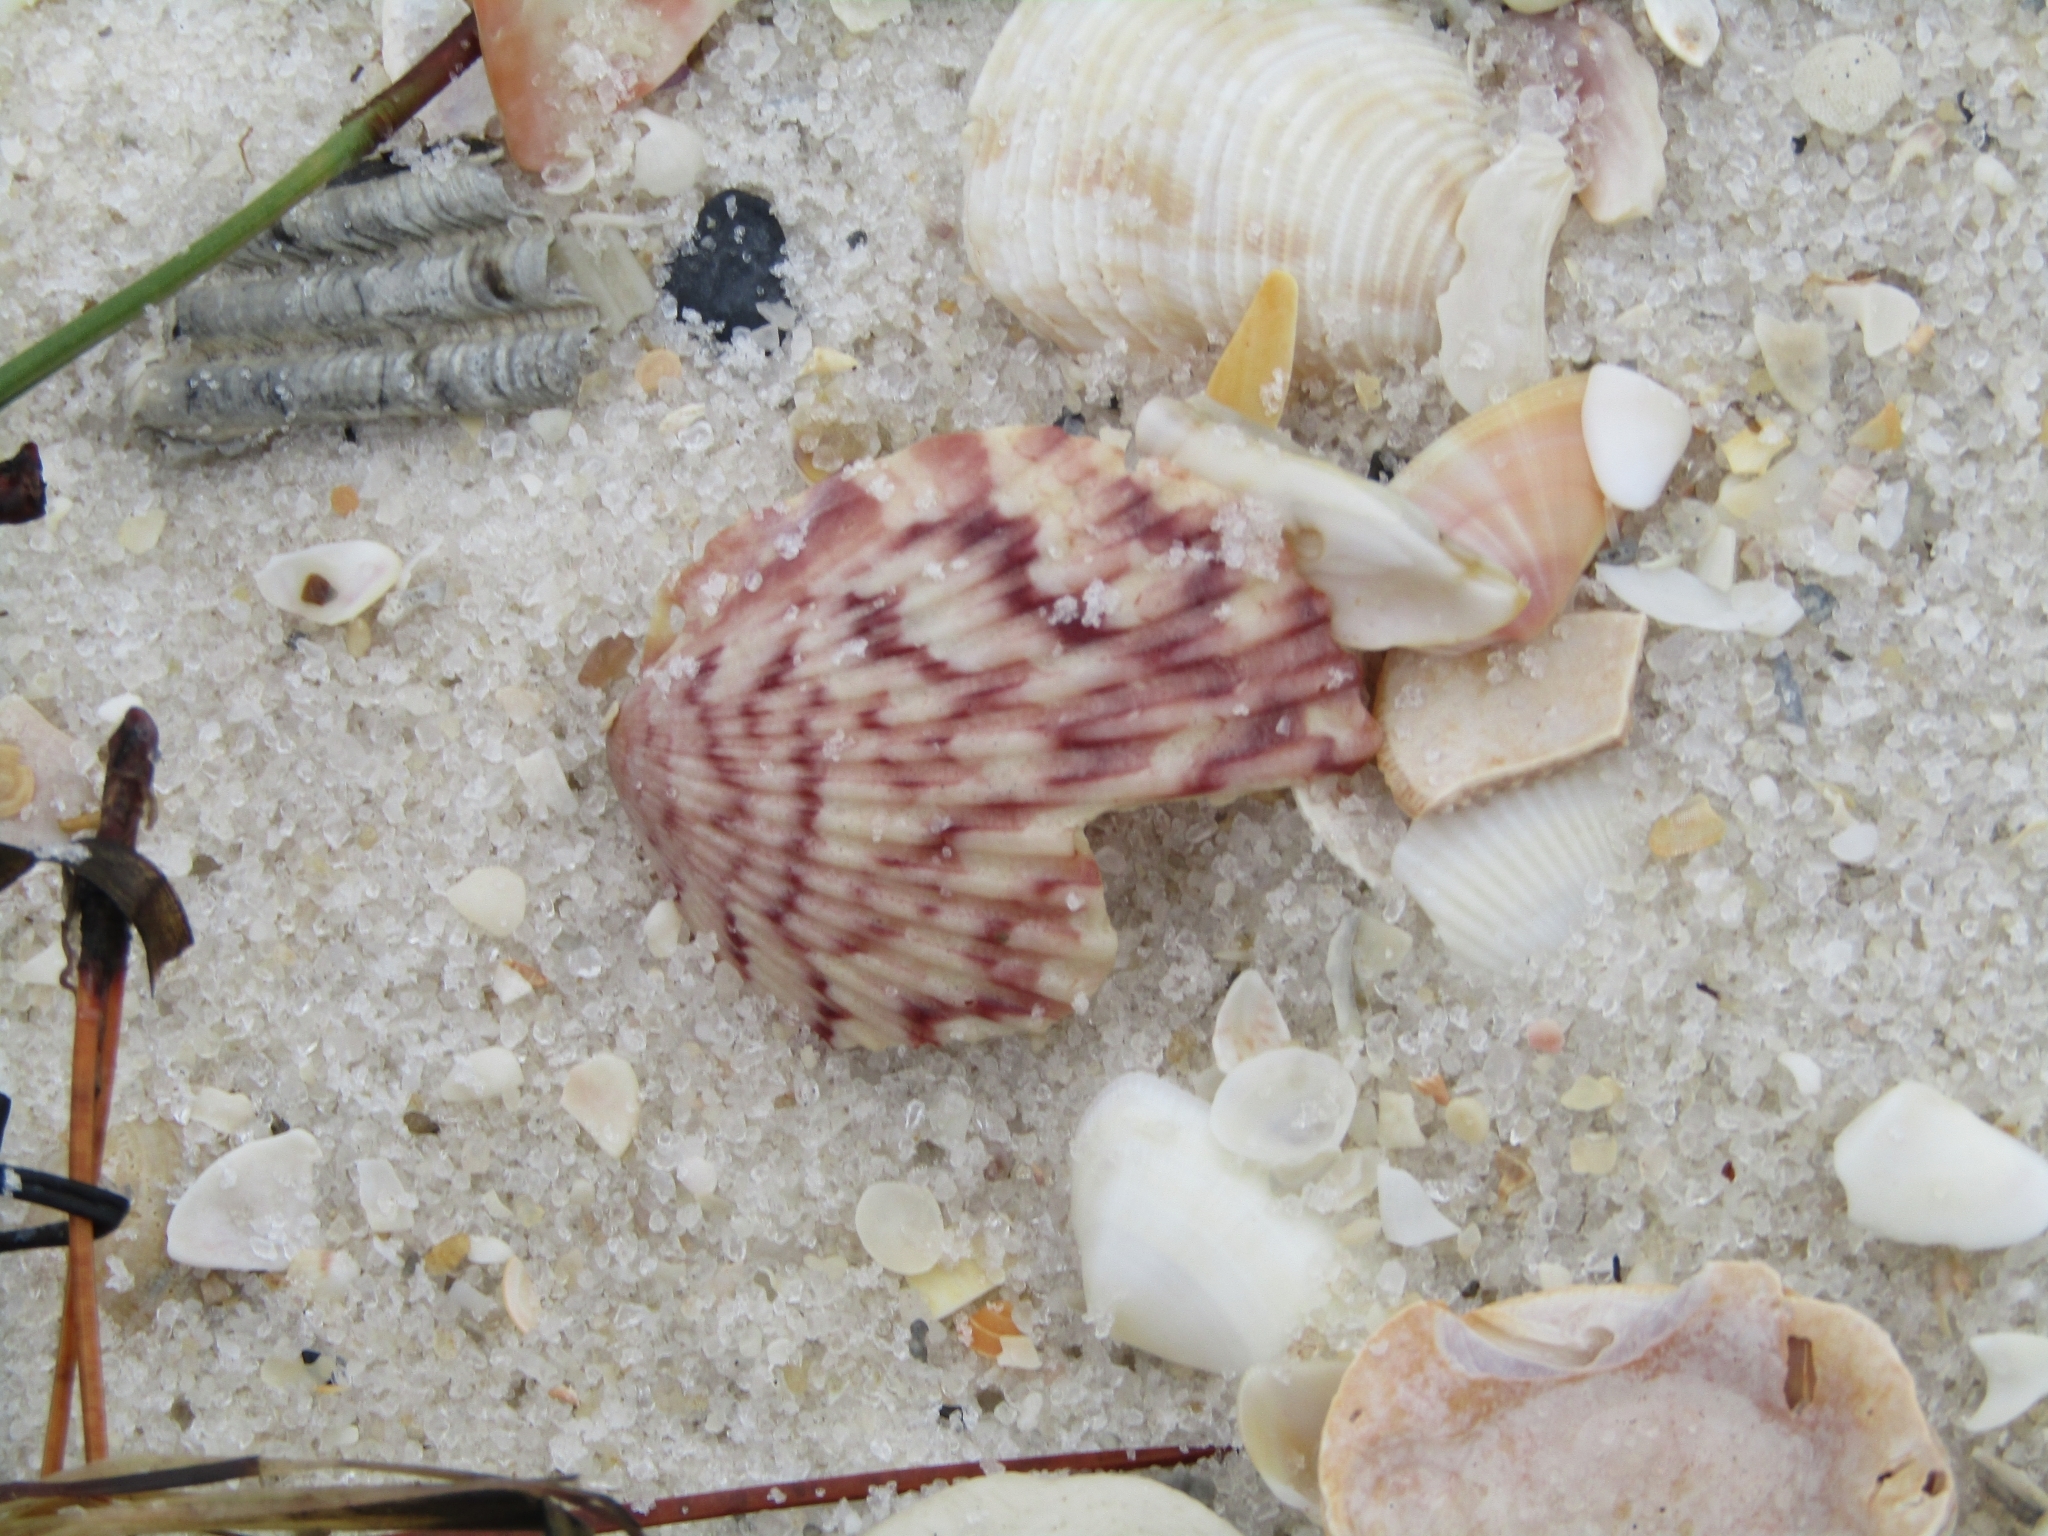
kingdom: Animalia
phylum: Mollusca
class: Bivalvia
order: Pectinida
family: Pectinidae
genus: Argopecten
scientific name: Argopecten gibbus
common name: Atlantic calico scallop
